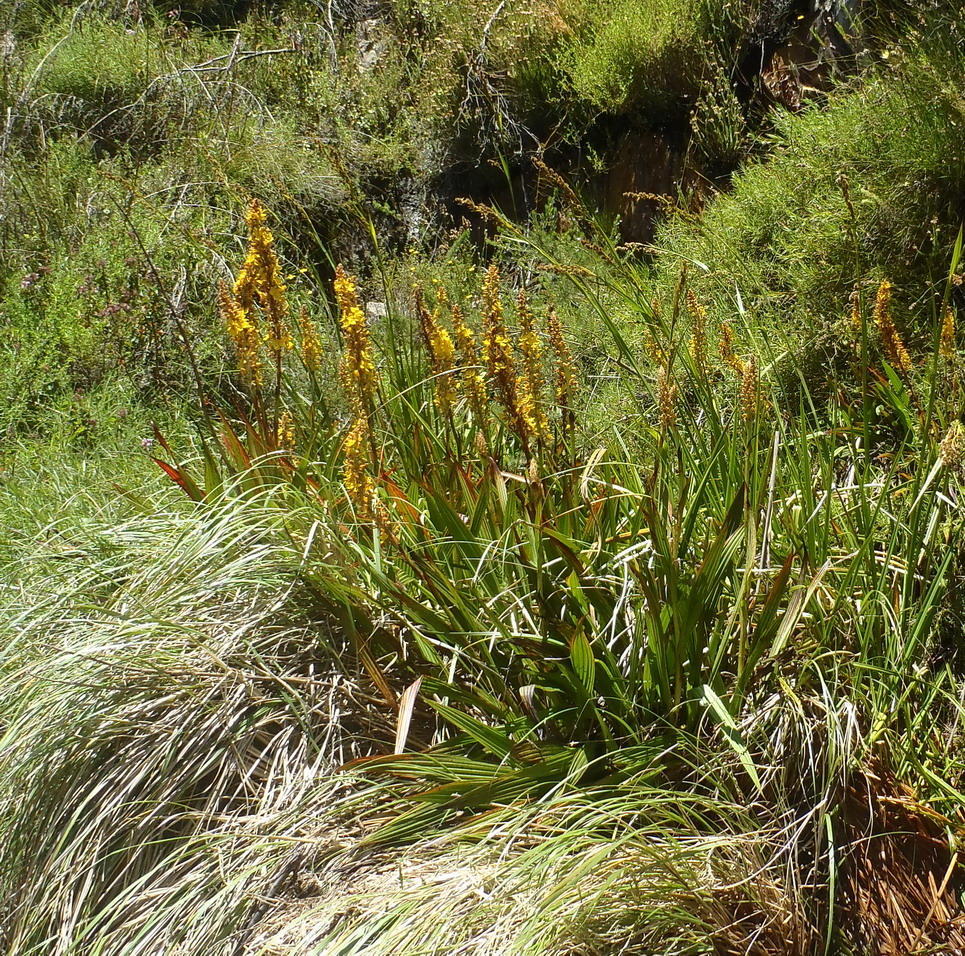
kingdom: Plantae
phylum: Tracheophyta
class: Liliopsida
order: Commelinales
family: Haemodoraceae
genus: Wachendorfia
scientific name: Wachendorfia thyrsiflora
